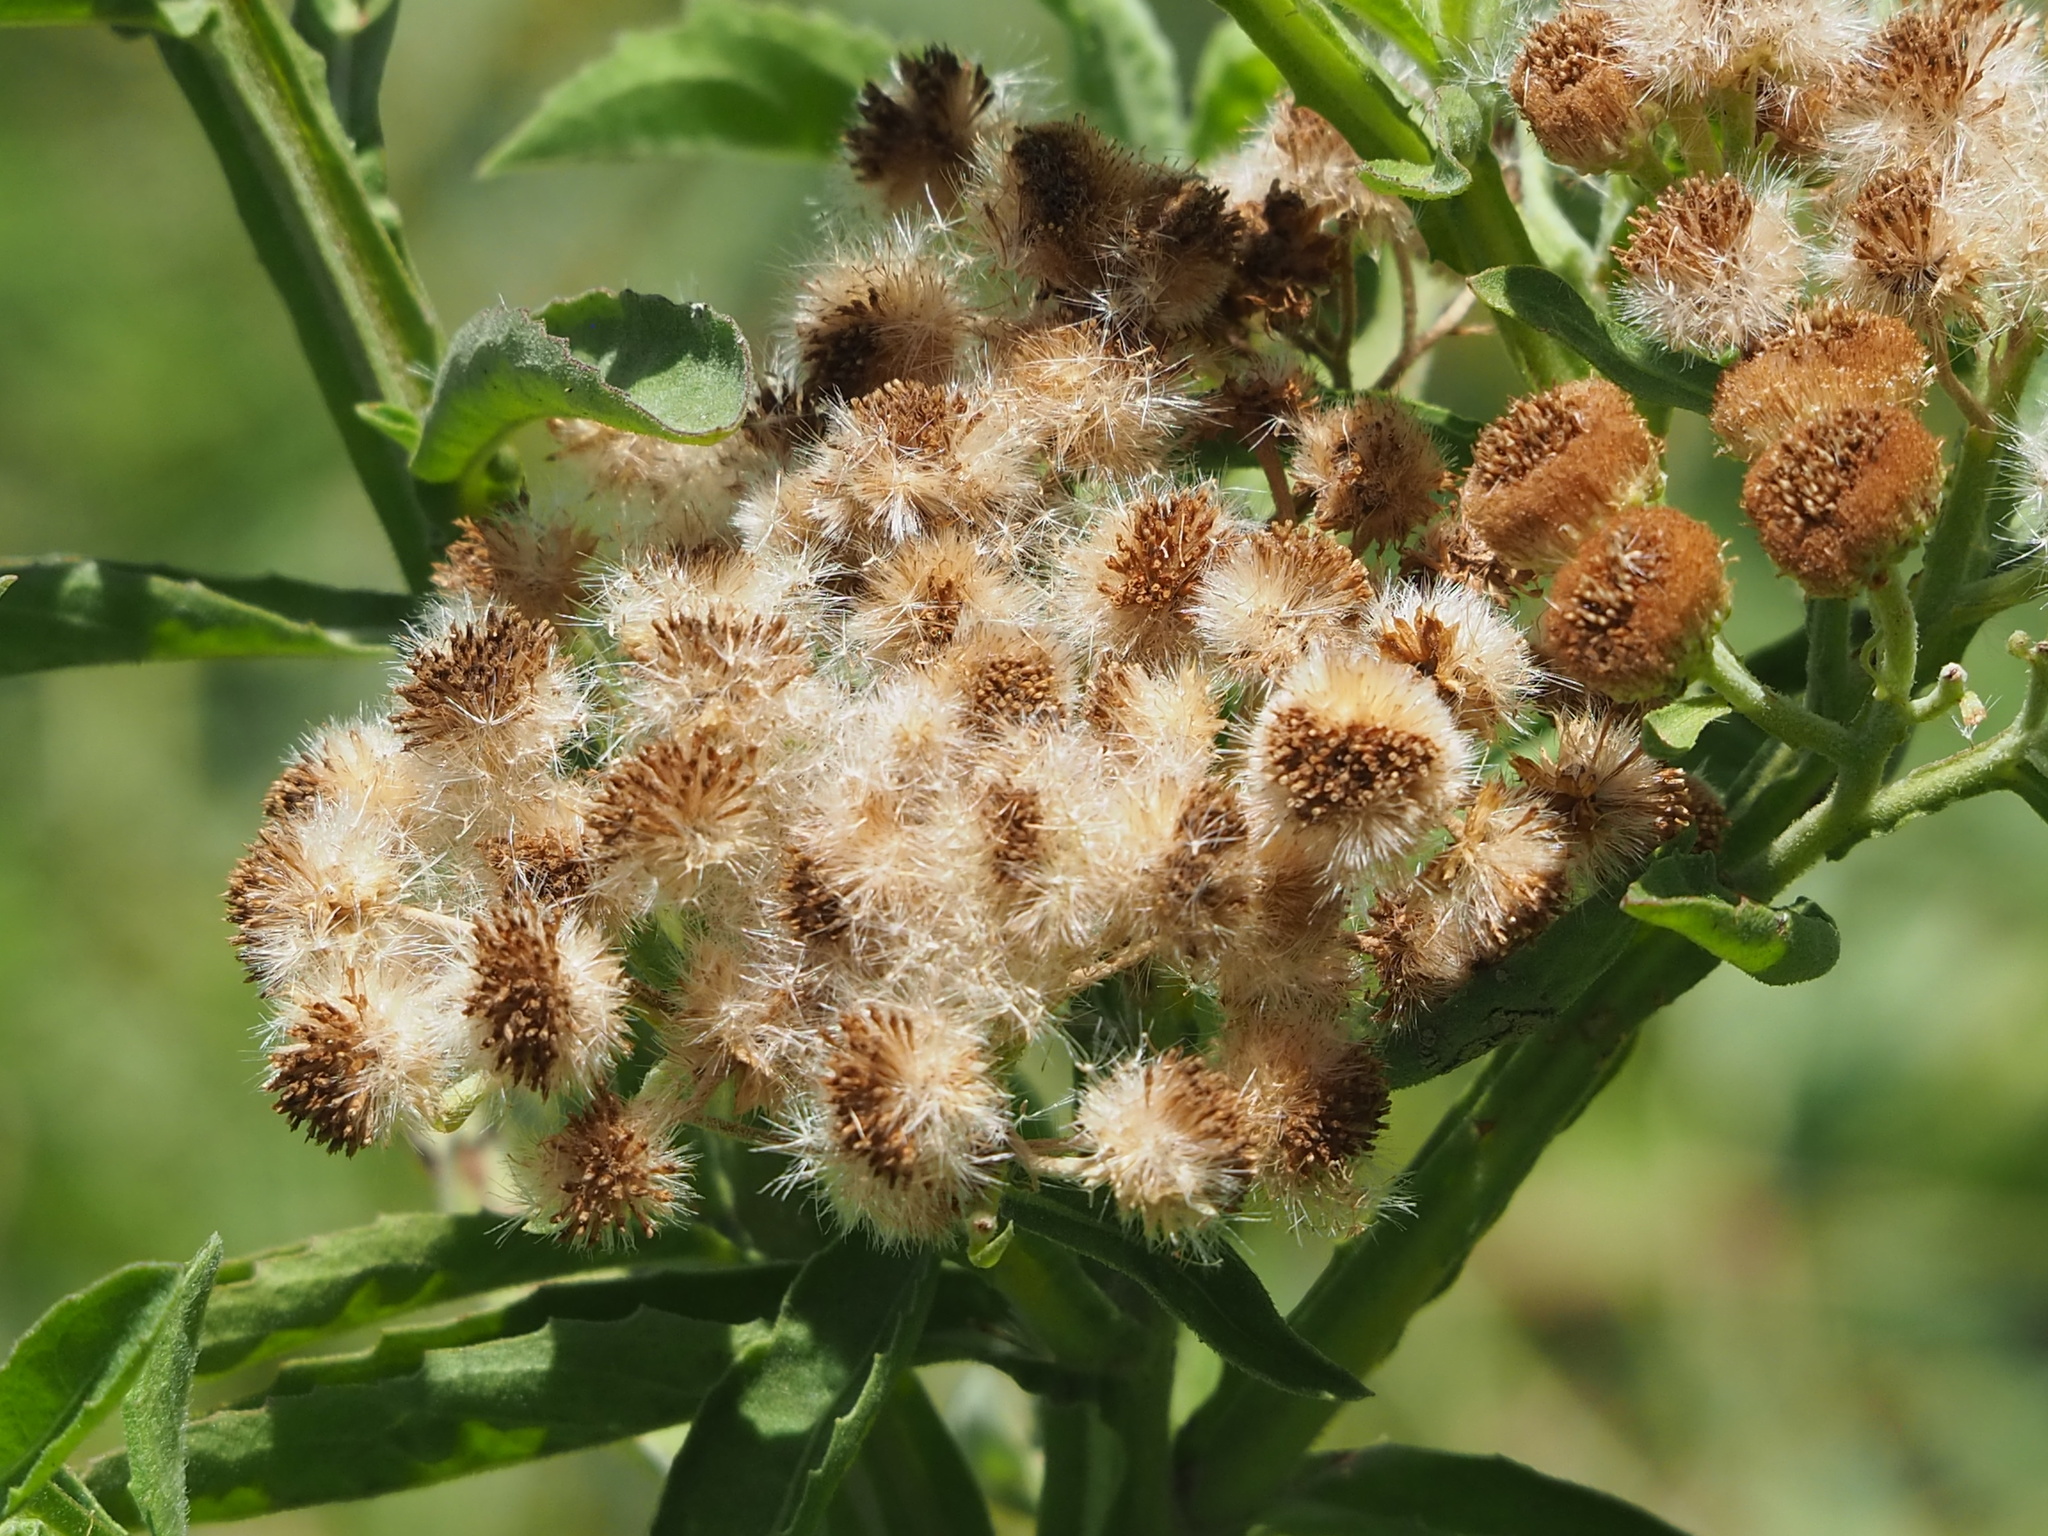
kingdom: Plantae
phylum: Tracheophyta
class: Magnoliopsida
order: Asterales
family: Asteraceae
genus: Pluchea
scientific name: Pluchea sagittalis
